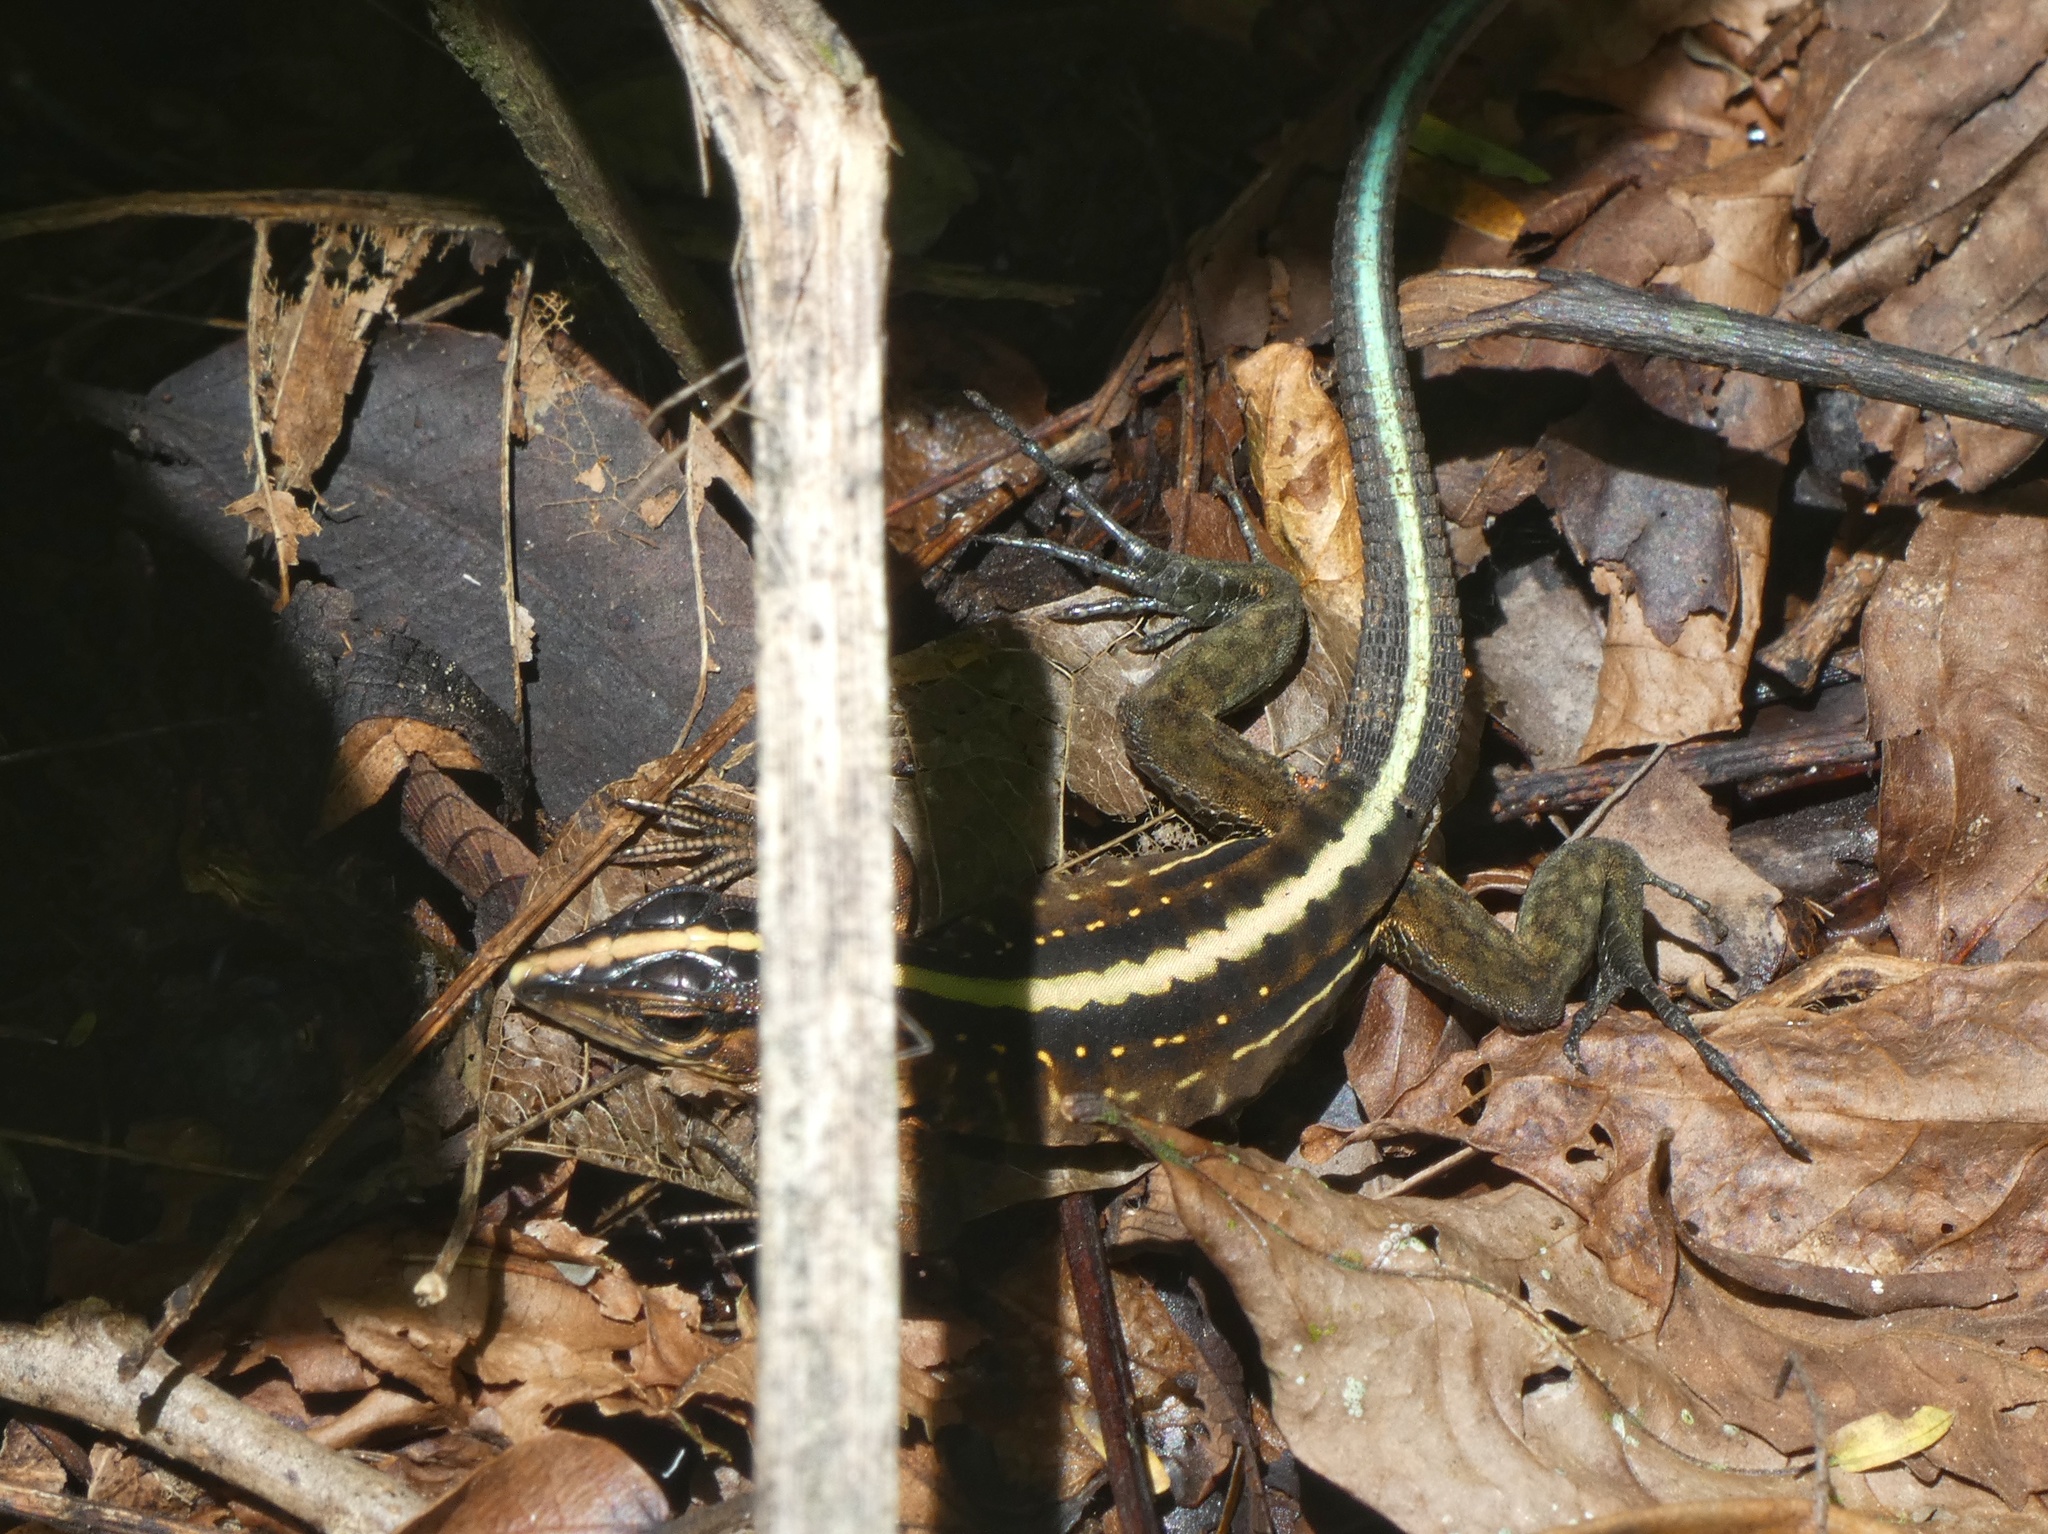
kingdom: Animalia
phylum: Chordata
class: Squamata
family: Teiidae
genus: Holcosus
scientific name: Holcosus festivus
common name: Middle american ameiva
